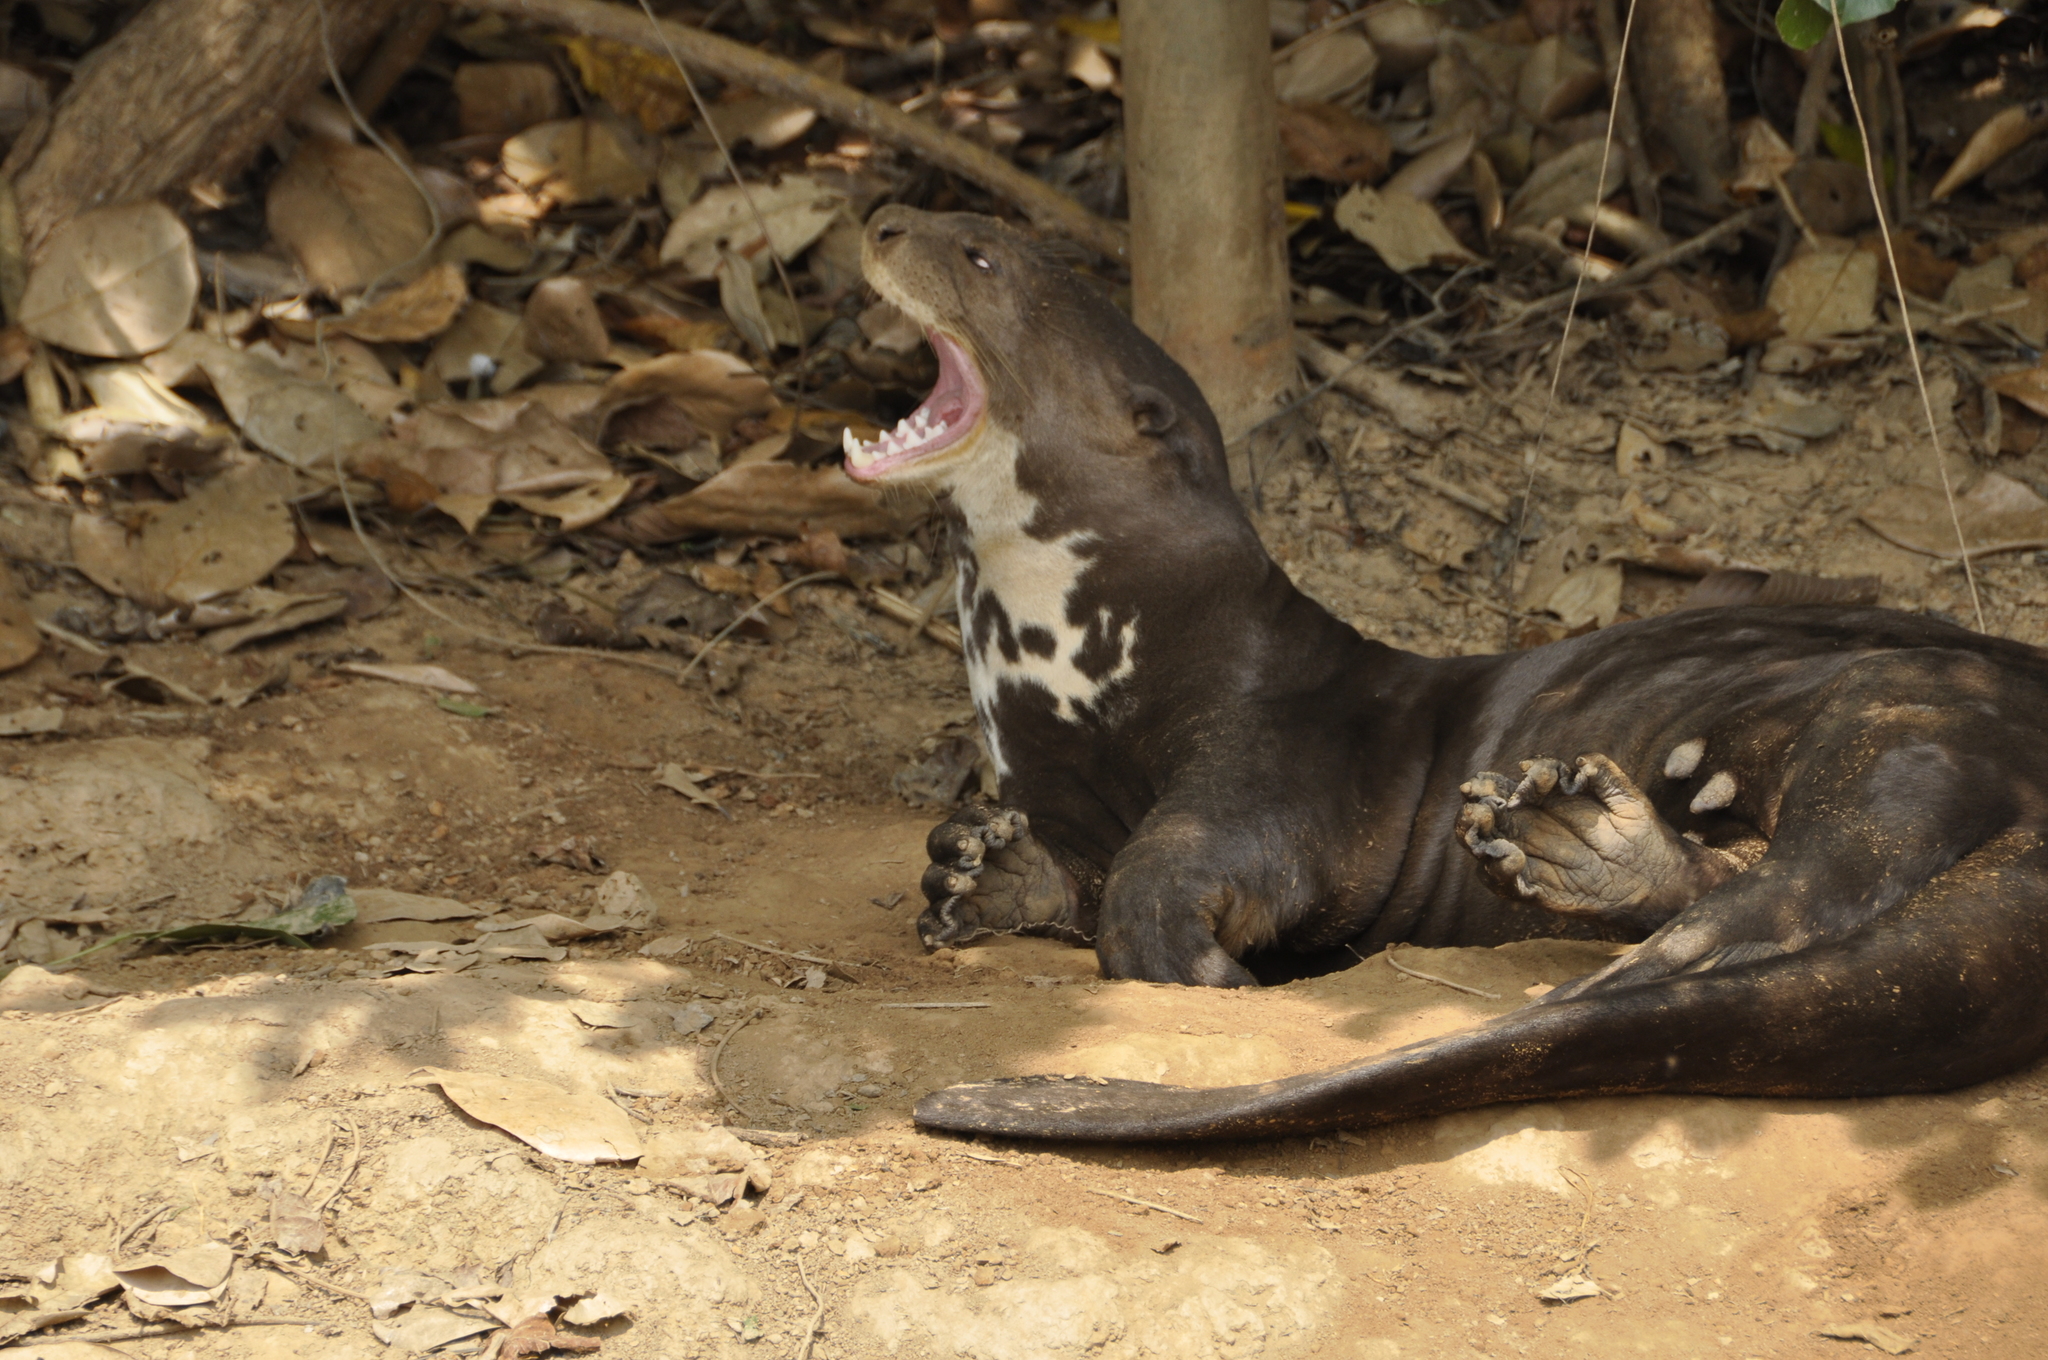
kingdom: Animalia
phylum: Chordata
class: Mammalia
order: Carnivora
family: Mustelidae
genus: Pteronura
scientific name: Pteronura brasiliensis
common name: Giant otter
